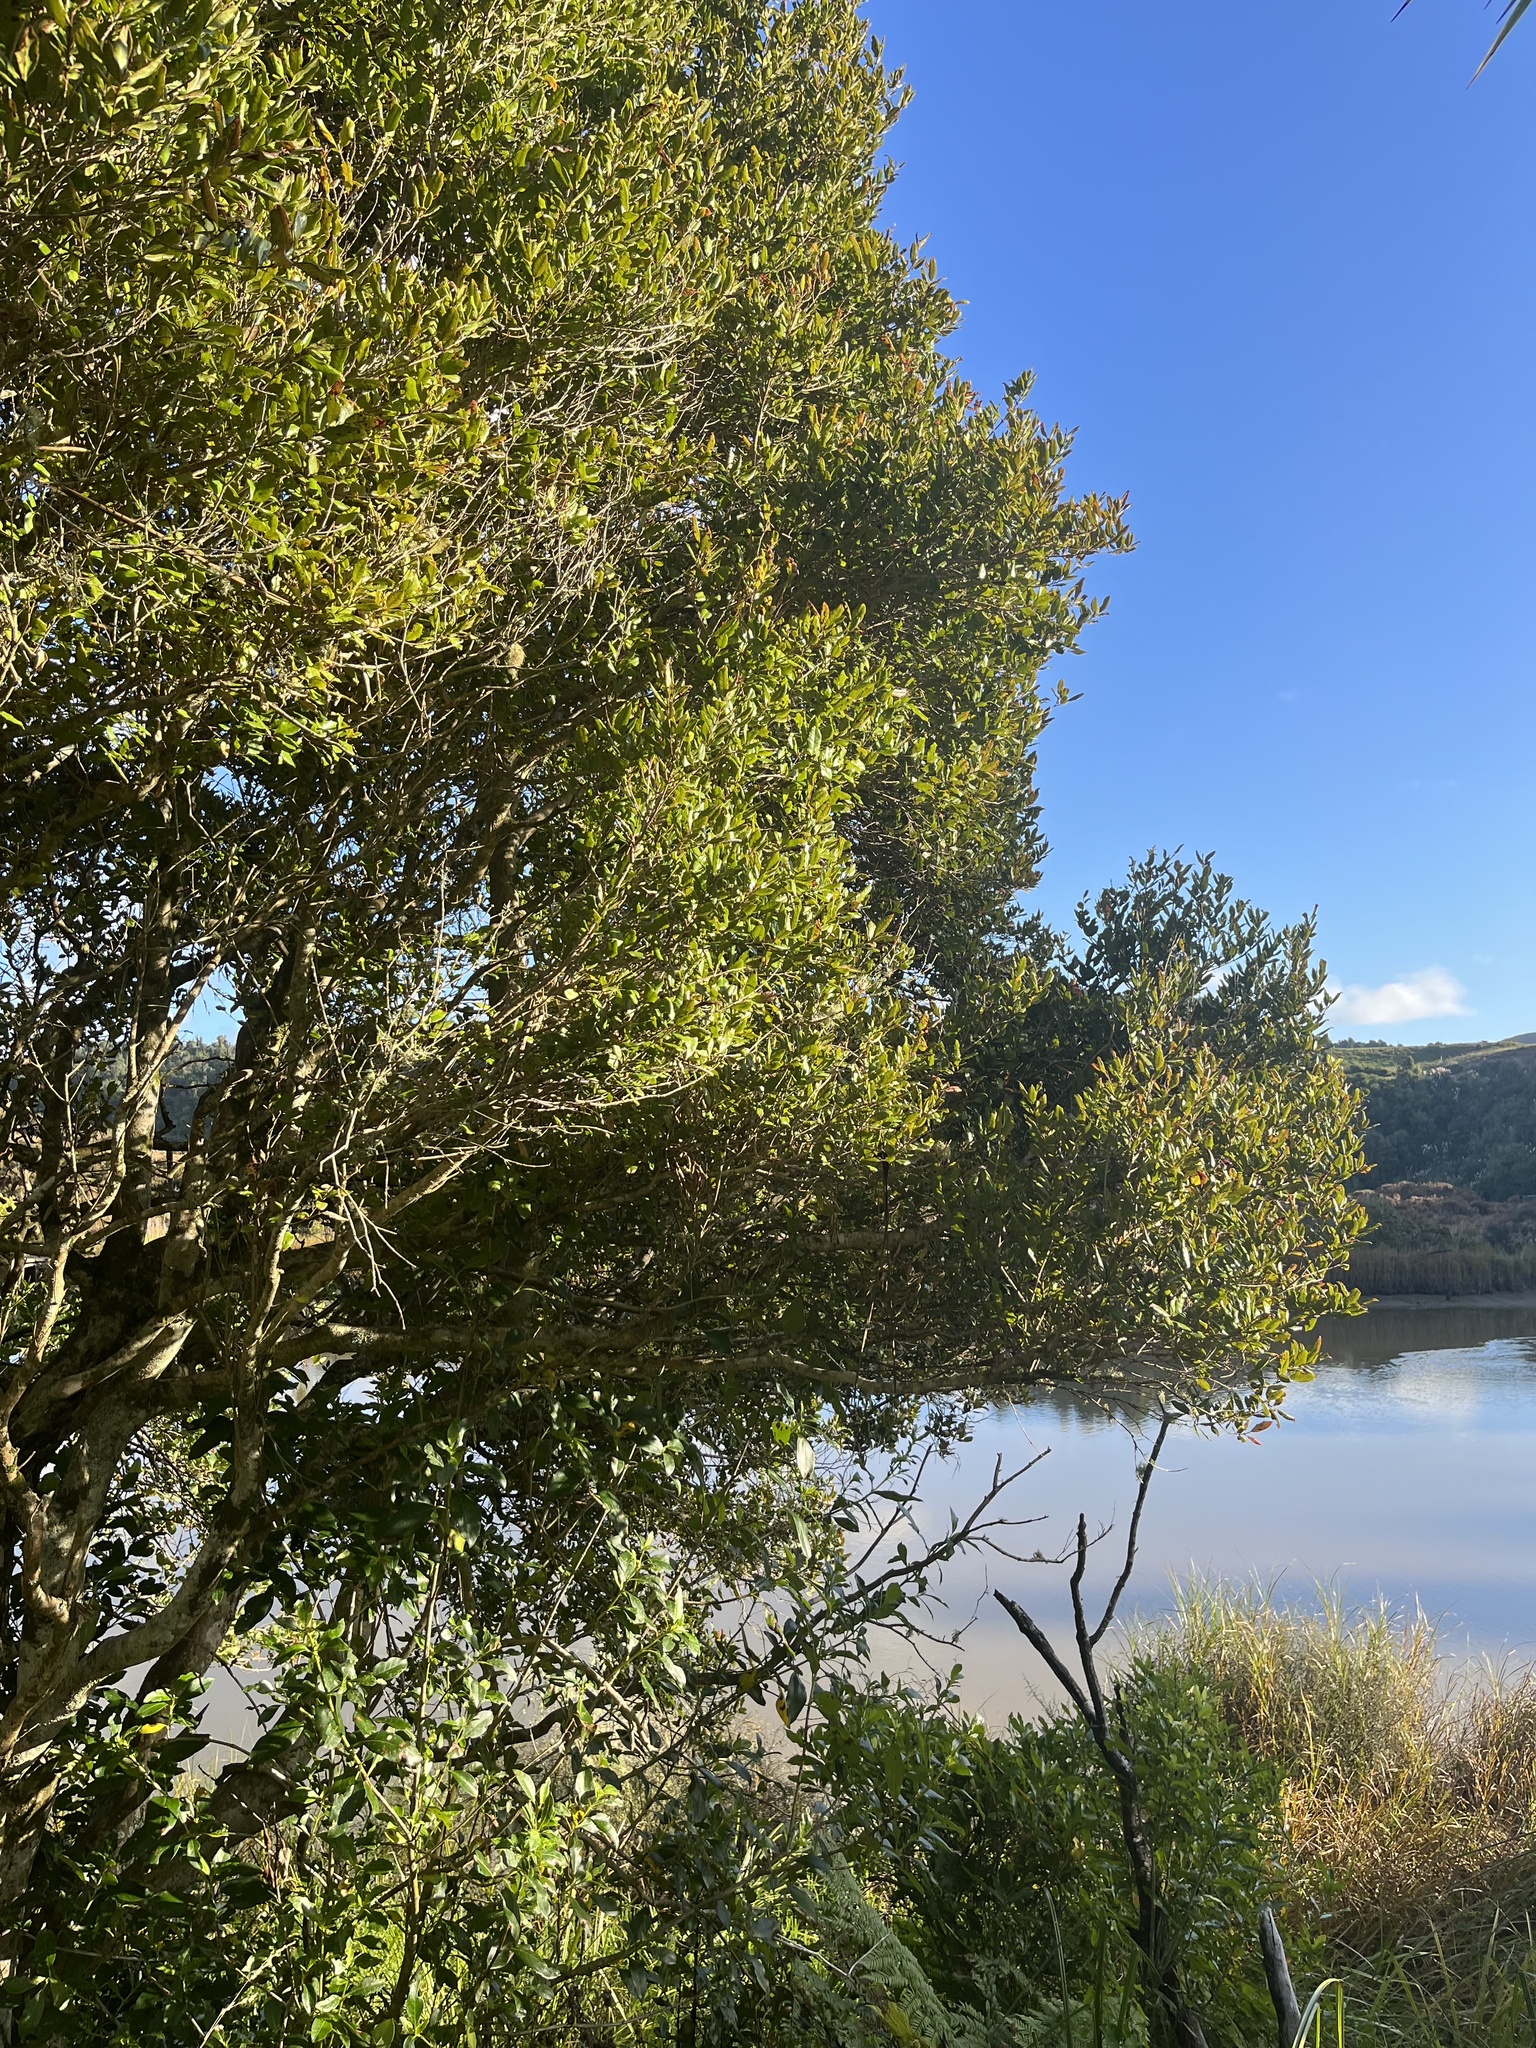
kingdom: Plantae
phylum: Tracheophyta
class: Magnoliopsida
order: Myrtales
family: Myrtaceae
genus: Syzygium
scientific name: Syzygium maire
